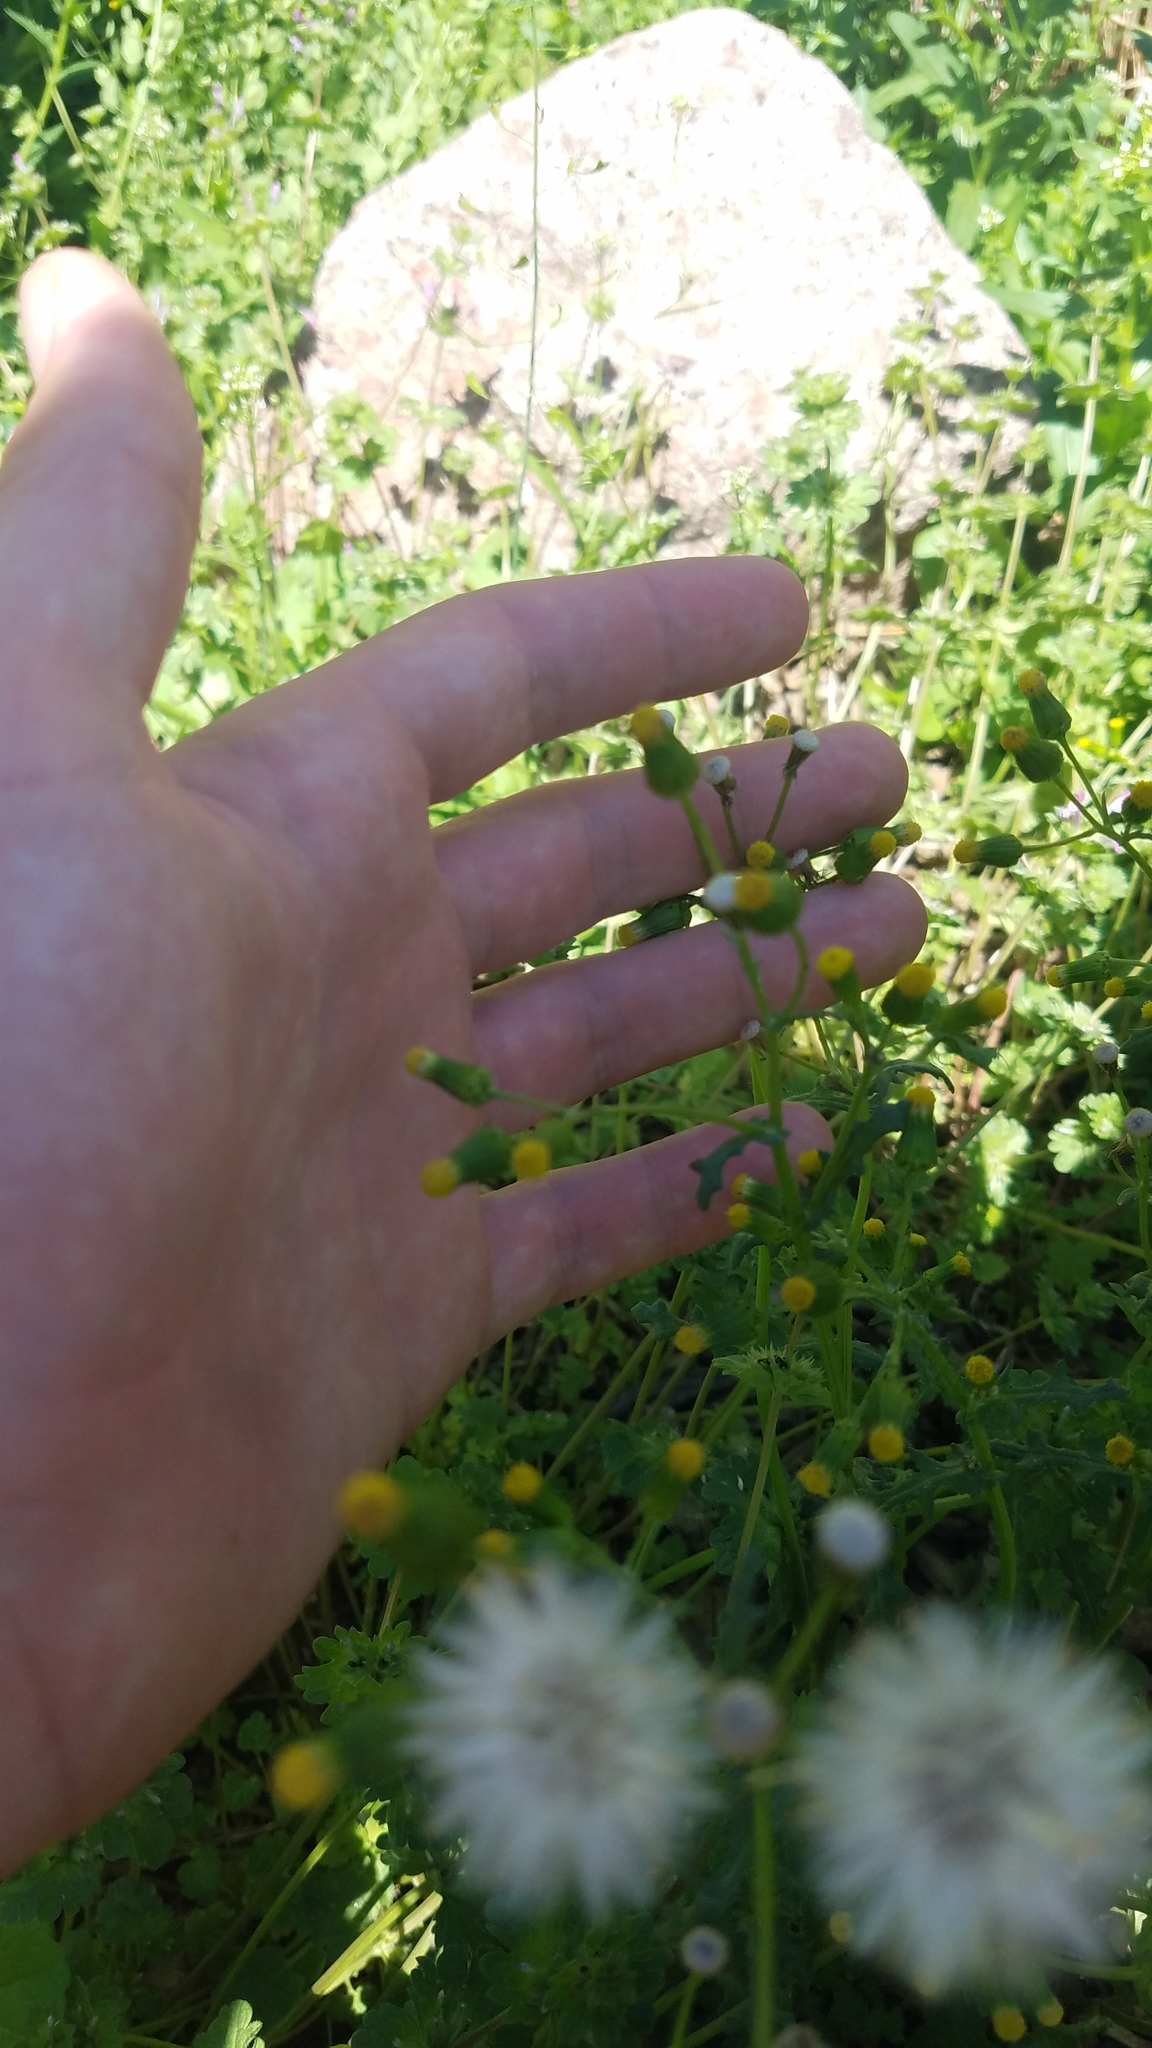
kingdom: Plantae
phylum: Tracheophyta
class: Magnoliopsida
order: Asterales
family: Asteraceae
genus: Senecio
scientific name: Senecio vulgaris
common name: Old-man-in-the-spring
